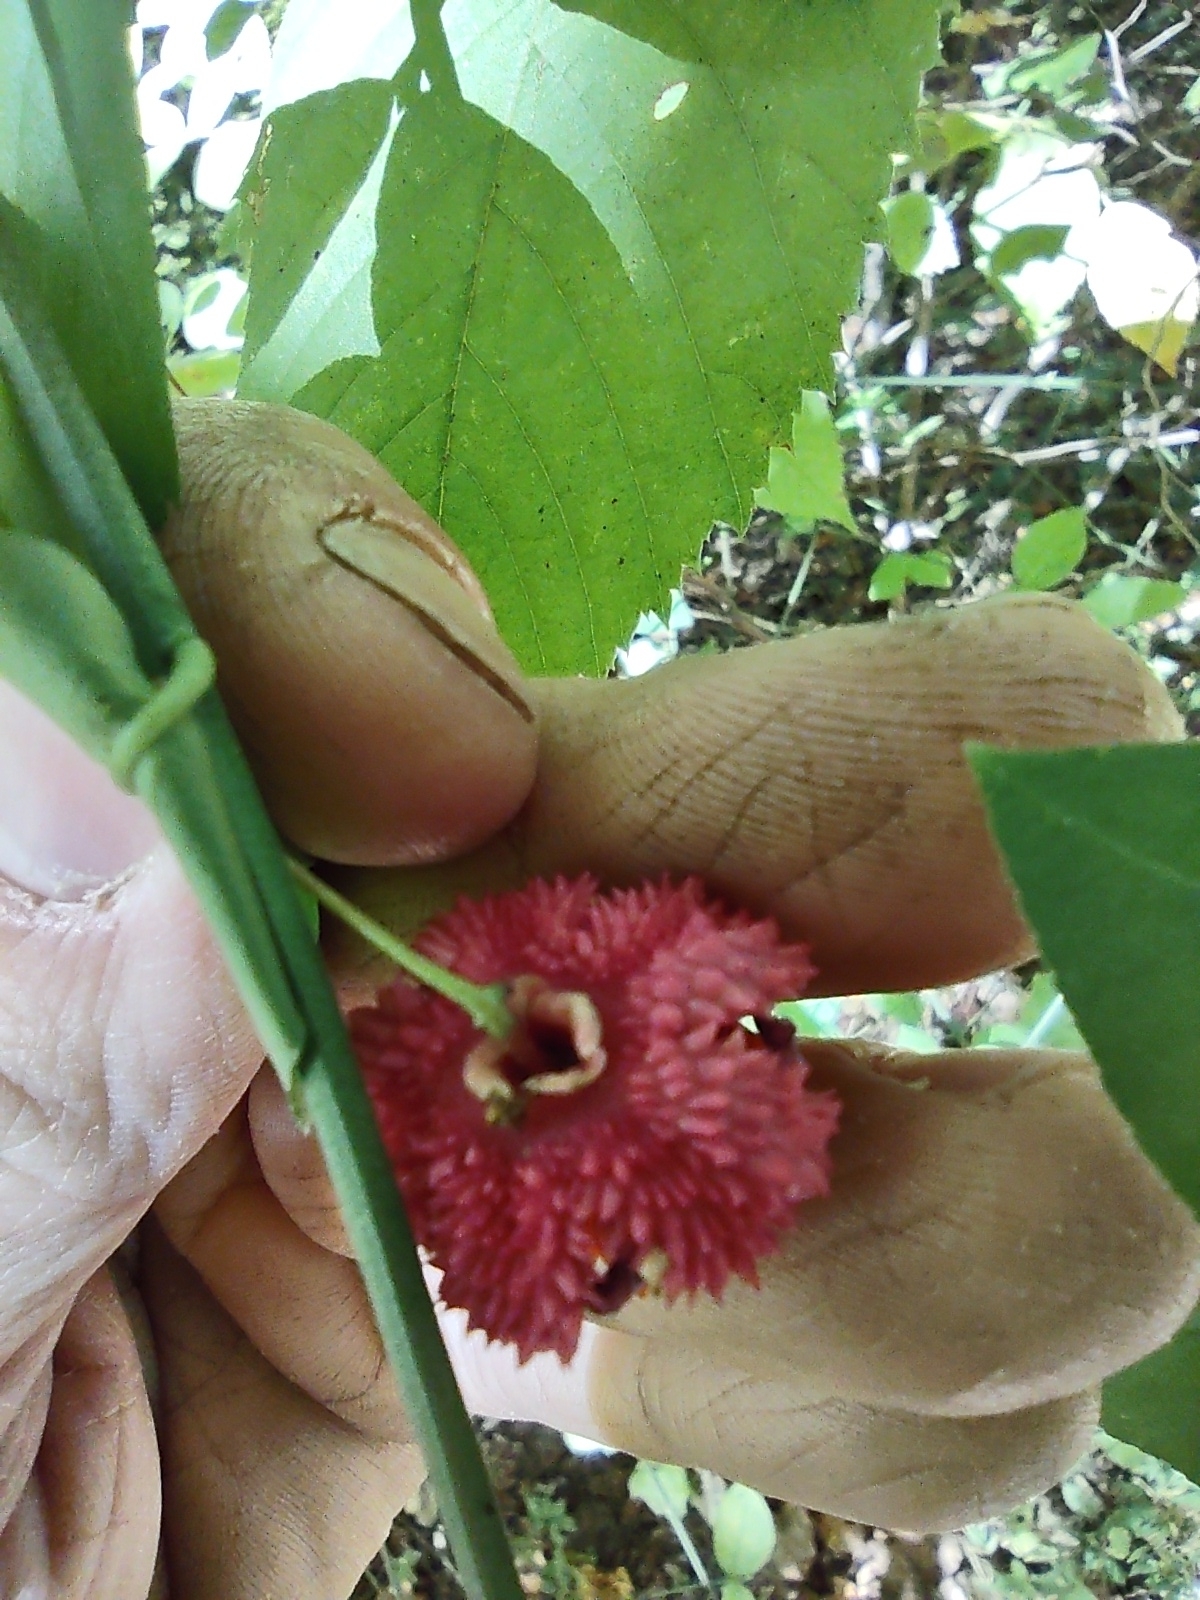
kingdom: Plantae
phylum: Tracheophyta
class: Magnoliopsida
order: Celastrales
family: Celastraceae
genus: Euonymus
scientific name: Euonymus americanus
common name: Bursting-heart
